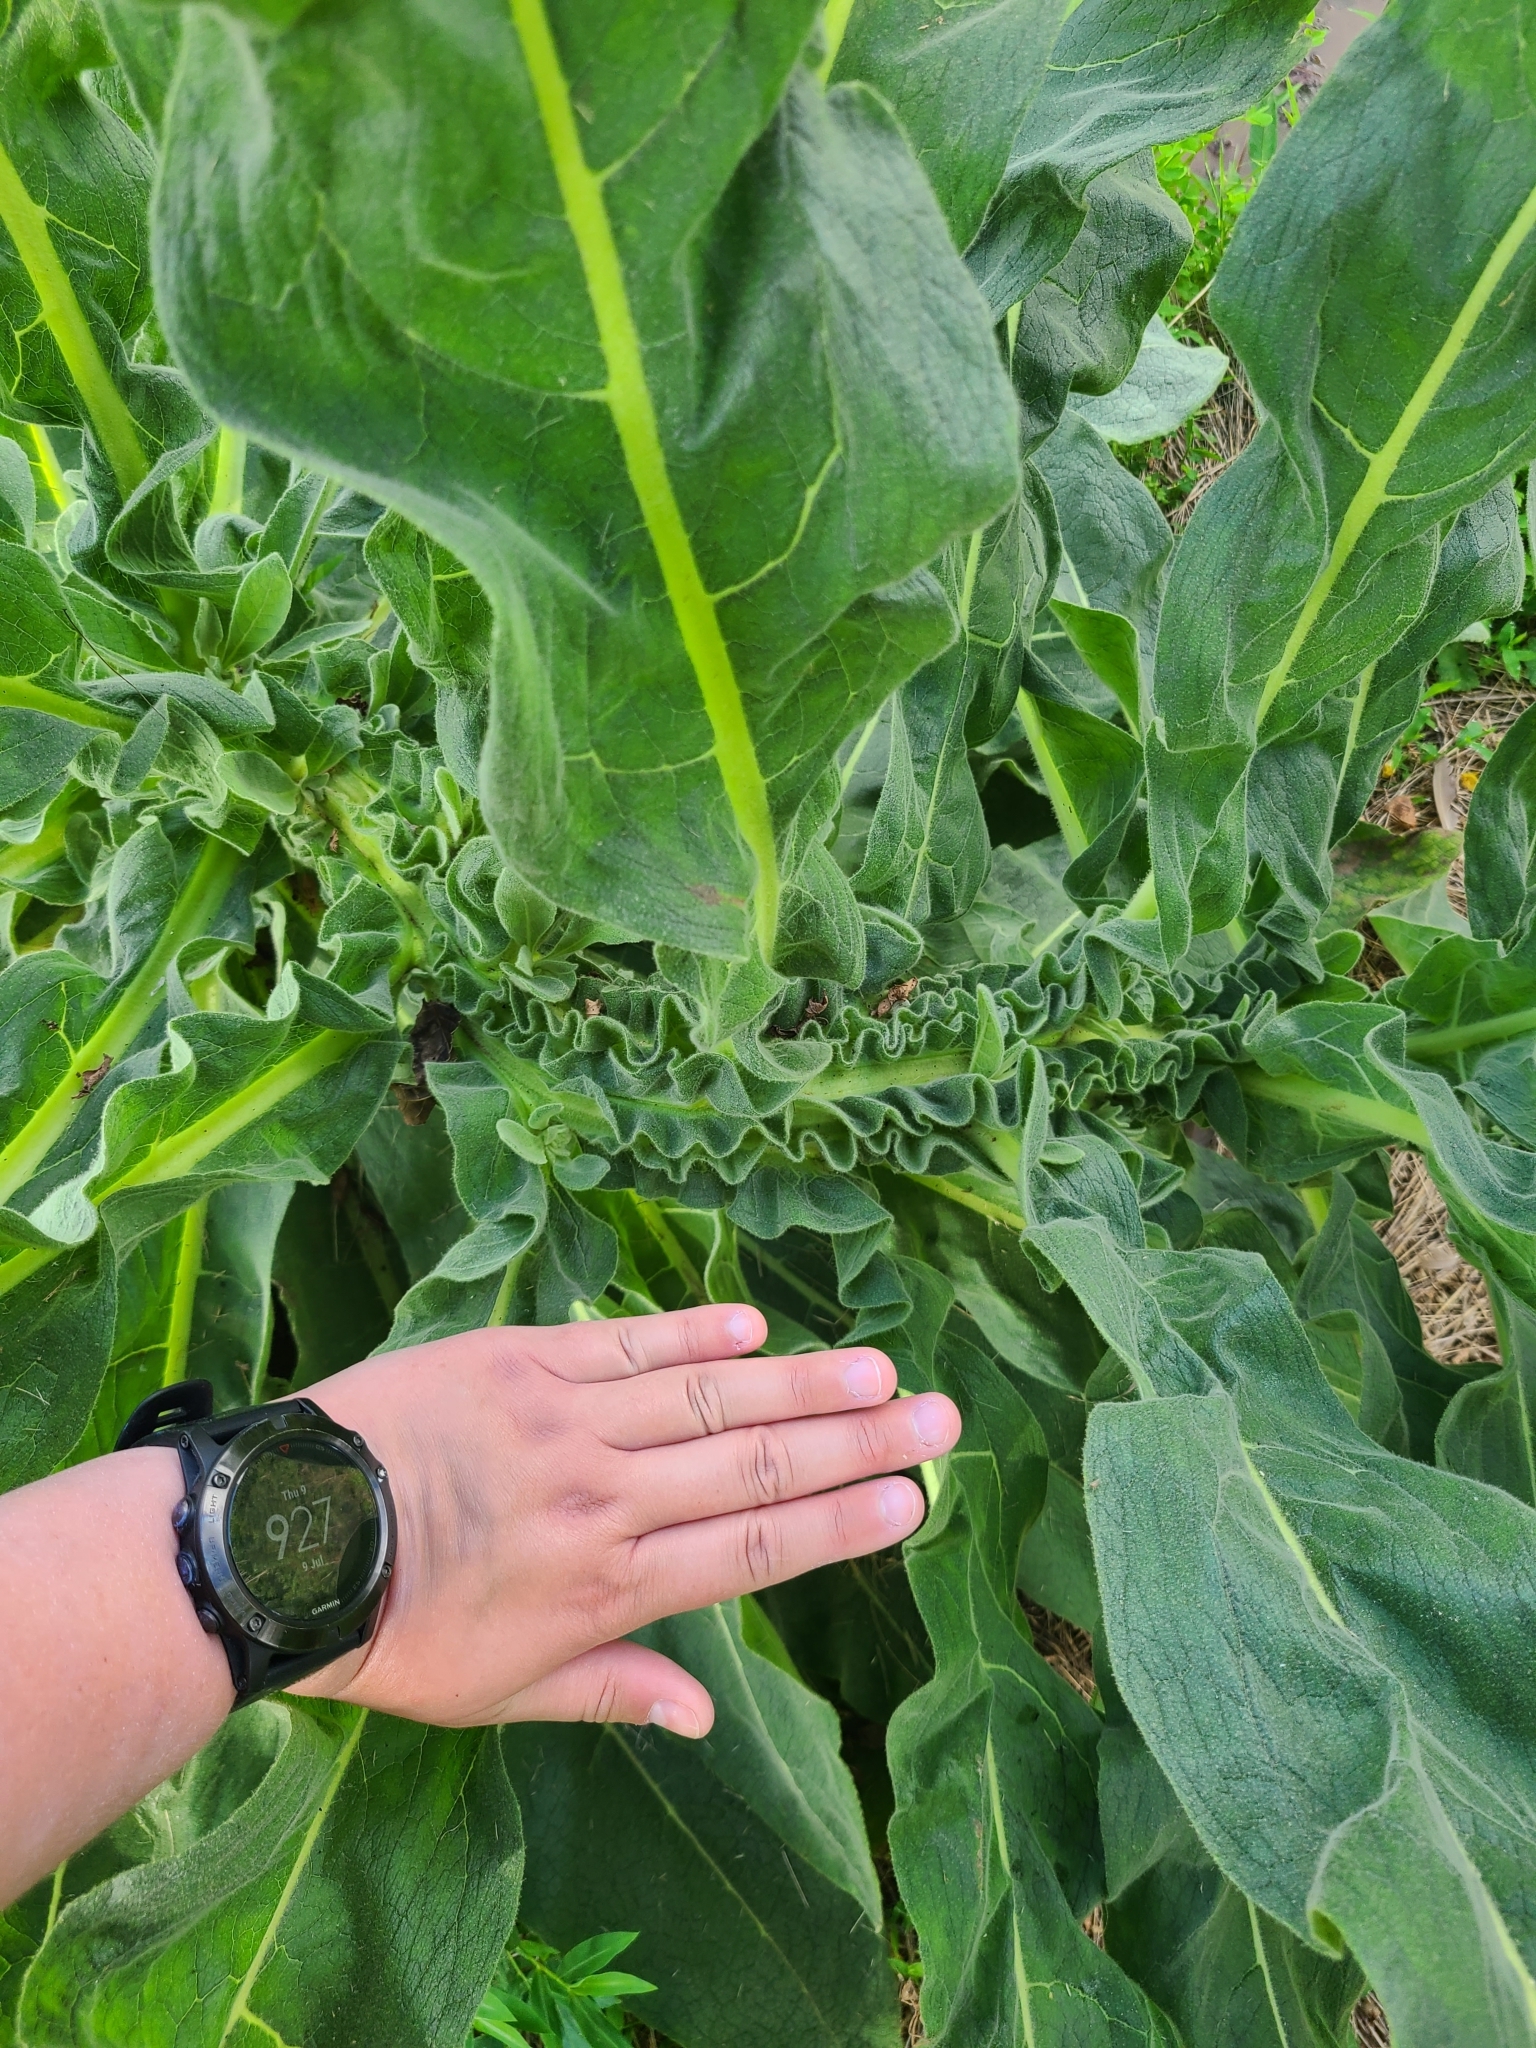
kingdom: Plantae
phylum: Tracheophyta
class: Magnoliopsida
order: Lamiales
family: Scrophulariaceae
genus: Verbascum
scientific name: Verbascum thapsus
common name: Common mullein
